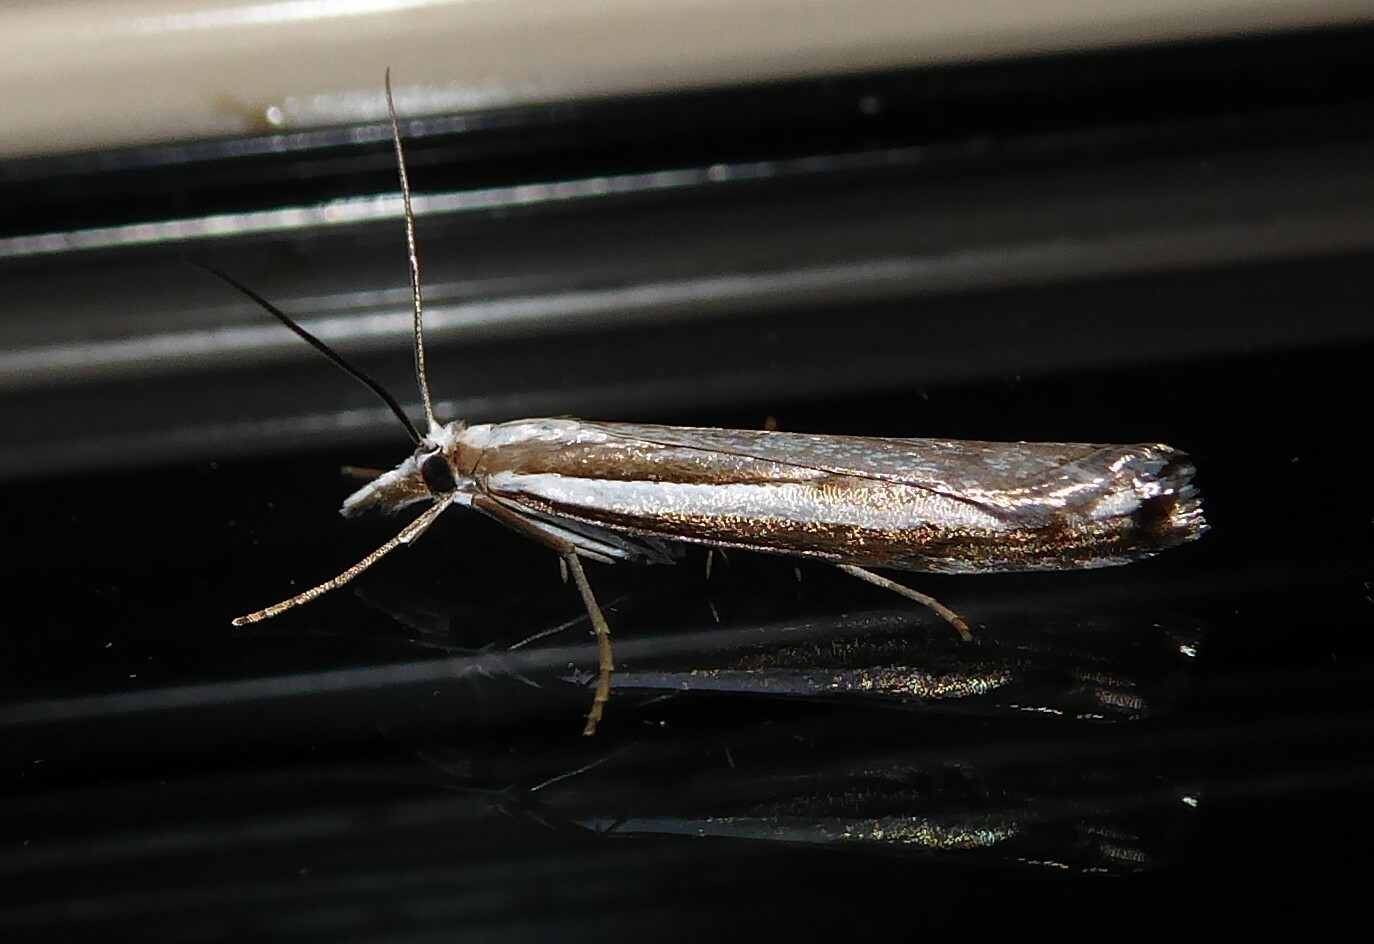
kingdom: Animalia
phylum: Arthropoda
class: Insecta
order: Lepidoptera
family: Crambidae
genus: Orocrambus
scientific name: Orocrambus vittellus
